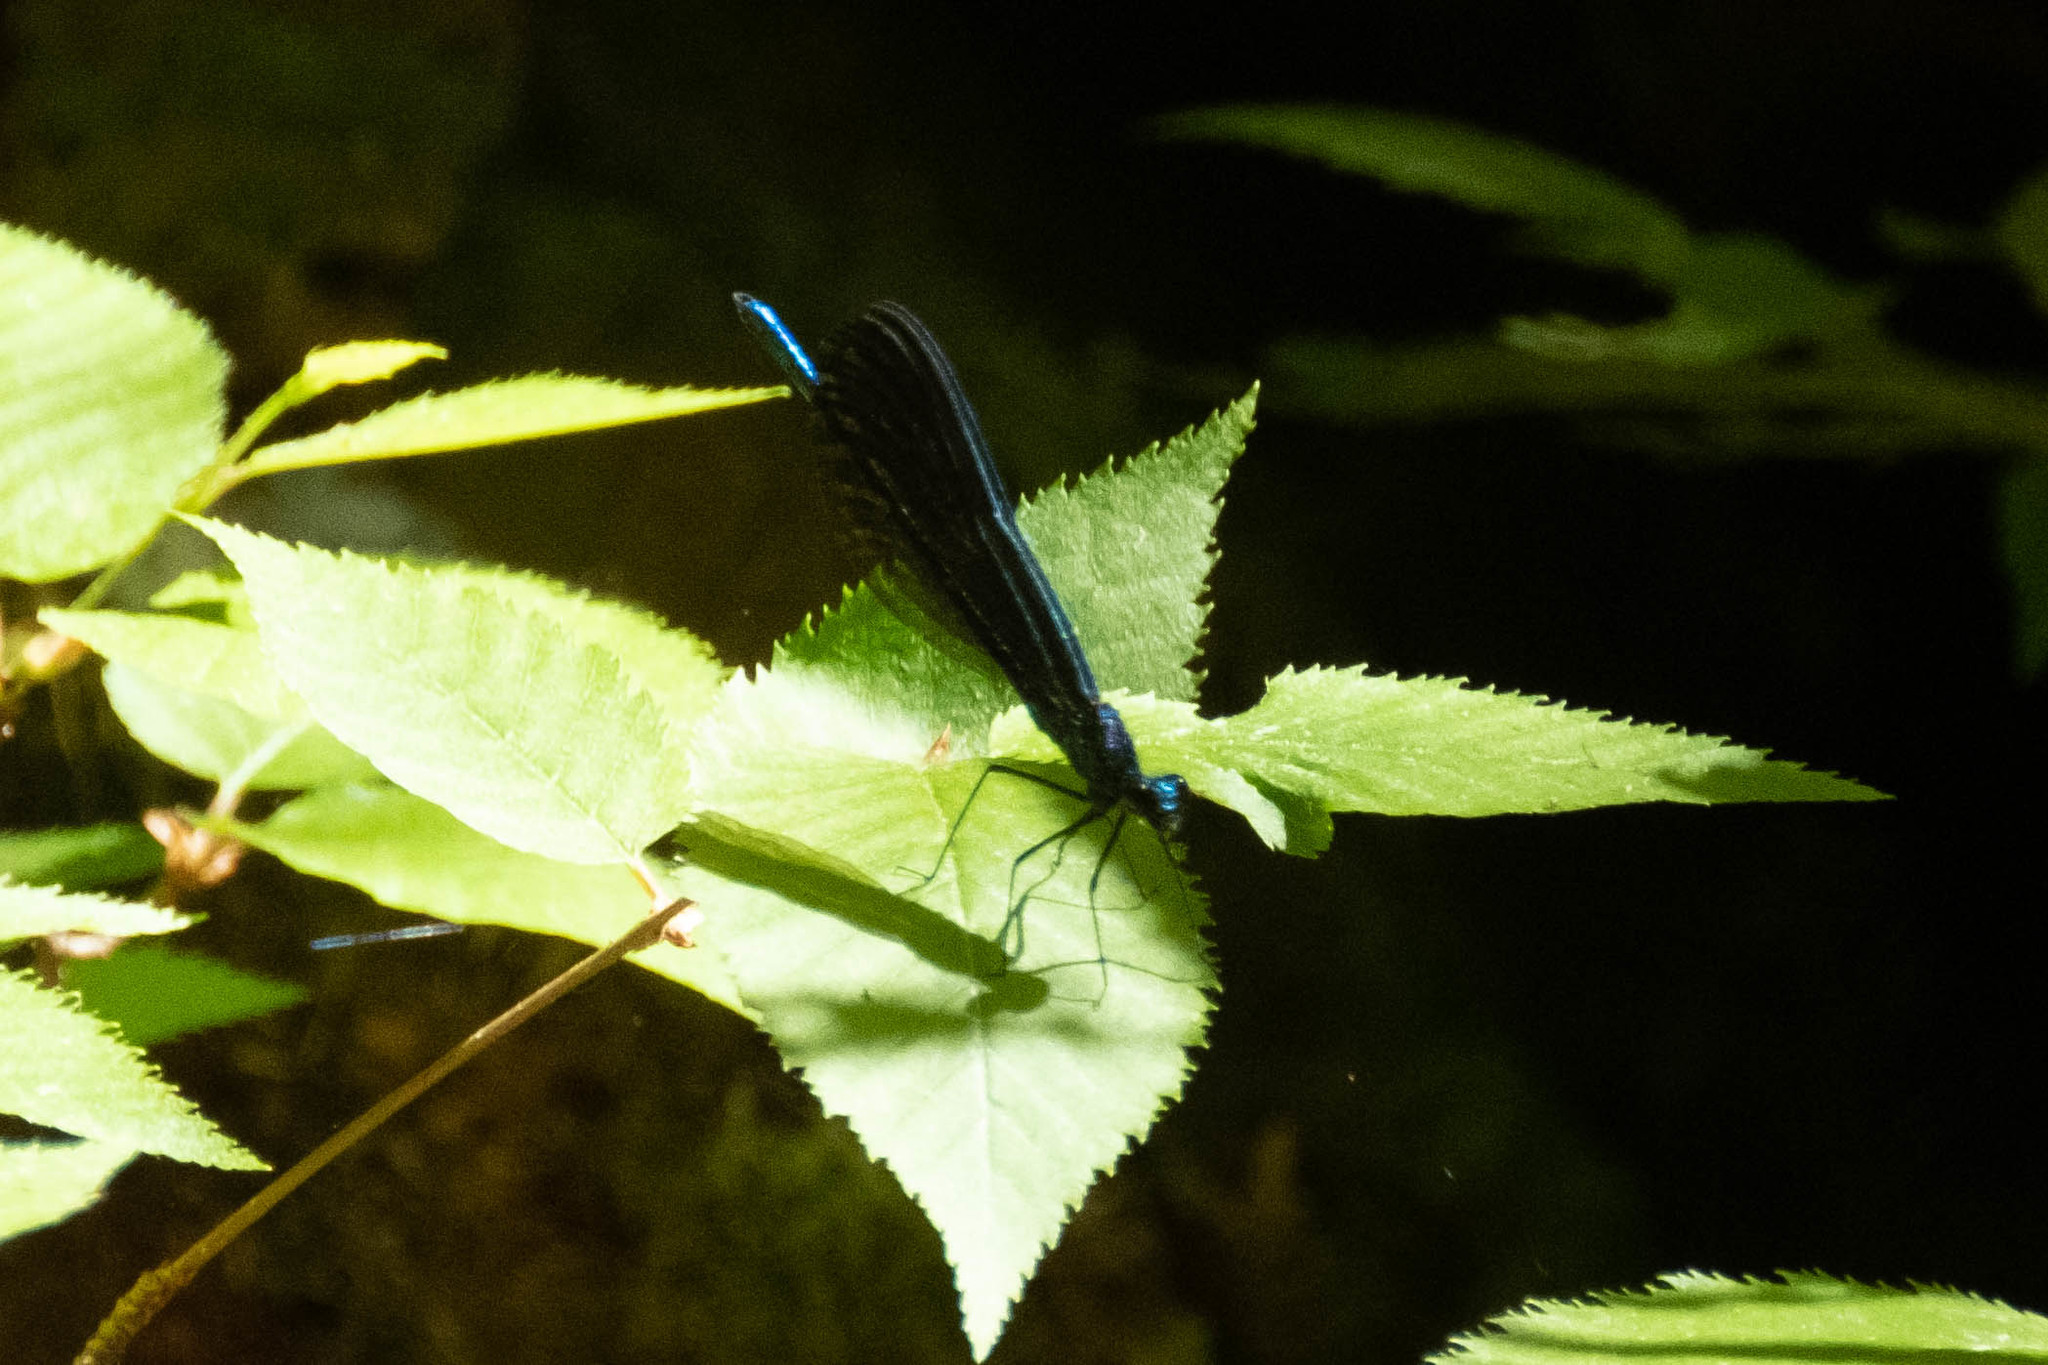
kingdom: Animalia
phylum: Arthropoda
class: Insecta
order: Odonata
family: Calopterygidae
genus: Calopteryx
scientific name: Calopteryx maculata
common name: Ebony jewelwing
